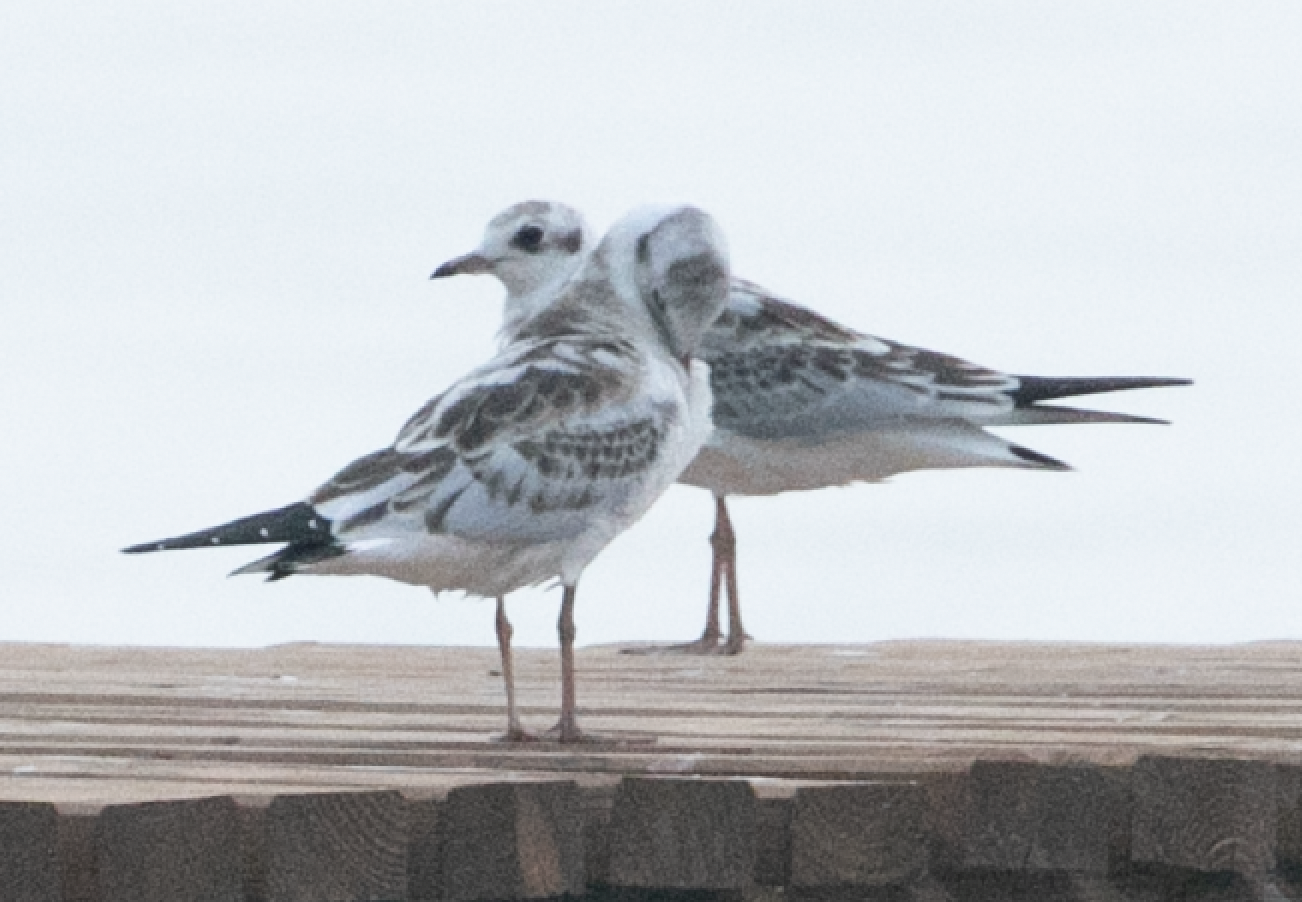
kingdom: Animalia
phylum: Chordata
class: Aves
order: Charadriiformes
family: Laridae
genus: Chroicocephalus
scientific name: Chroicocephalus ridibundus
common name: Black-headed gull
